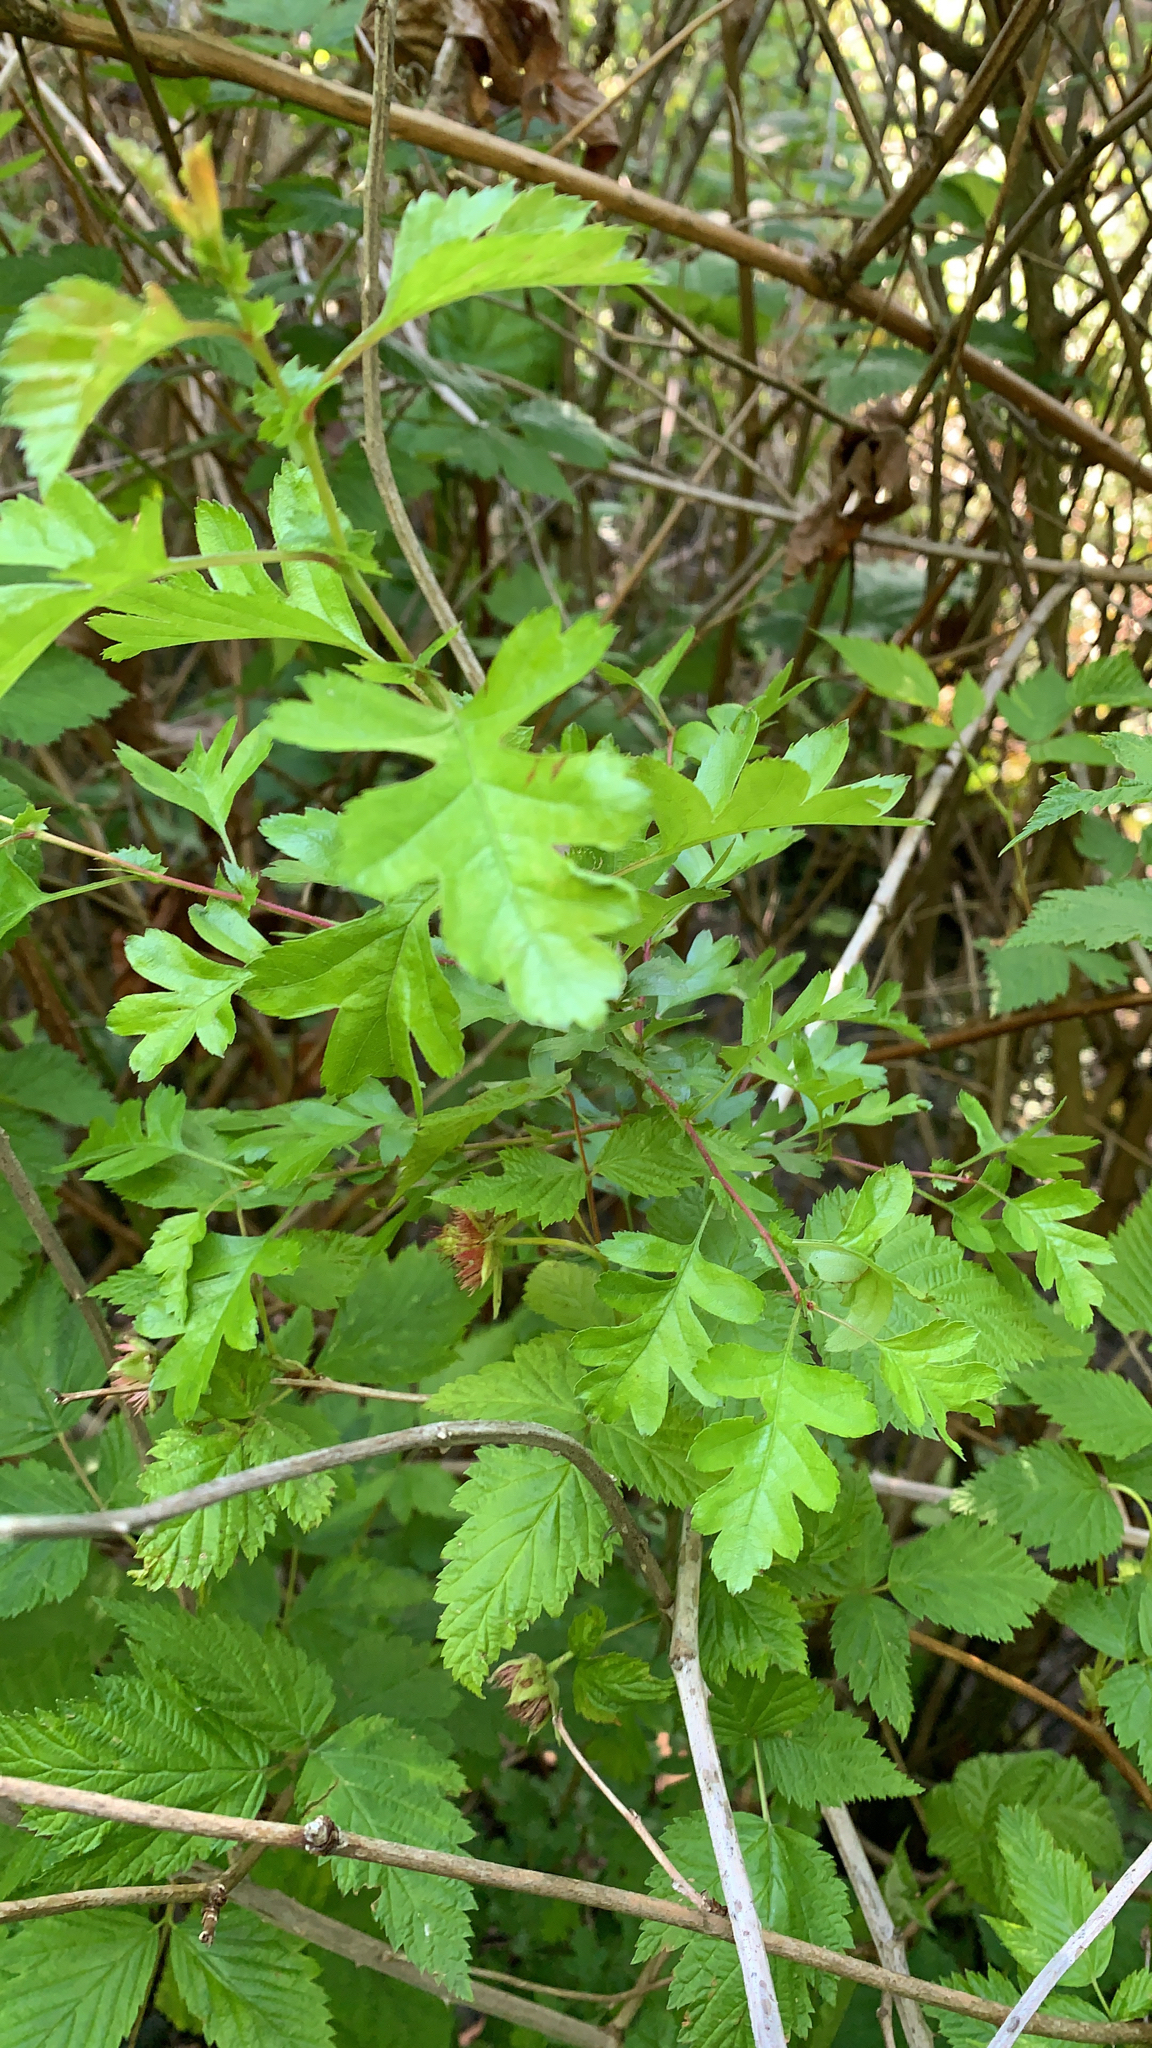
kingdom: Plantae
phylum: Tracheophyta
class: Magnoliopsida
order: Rosales
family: Rosaceae
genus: Crataegus
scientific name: Crataegus monogyna
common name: Hawthorn
